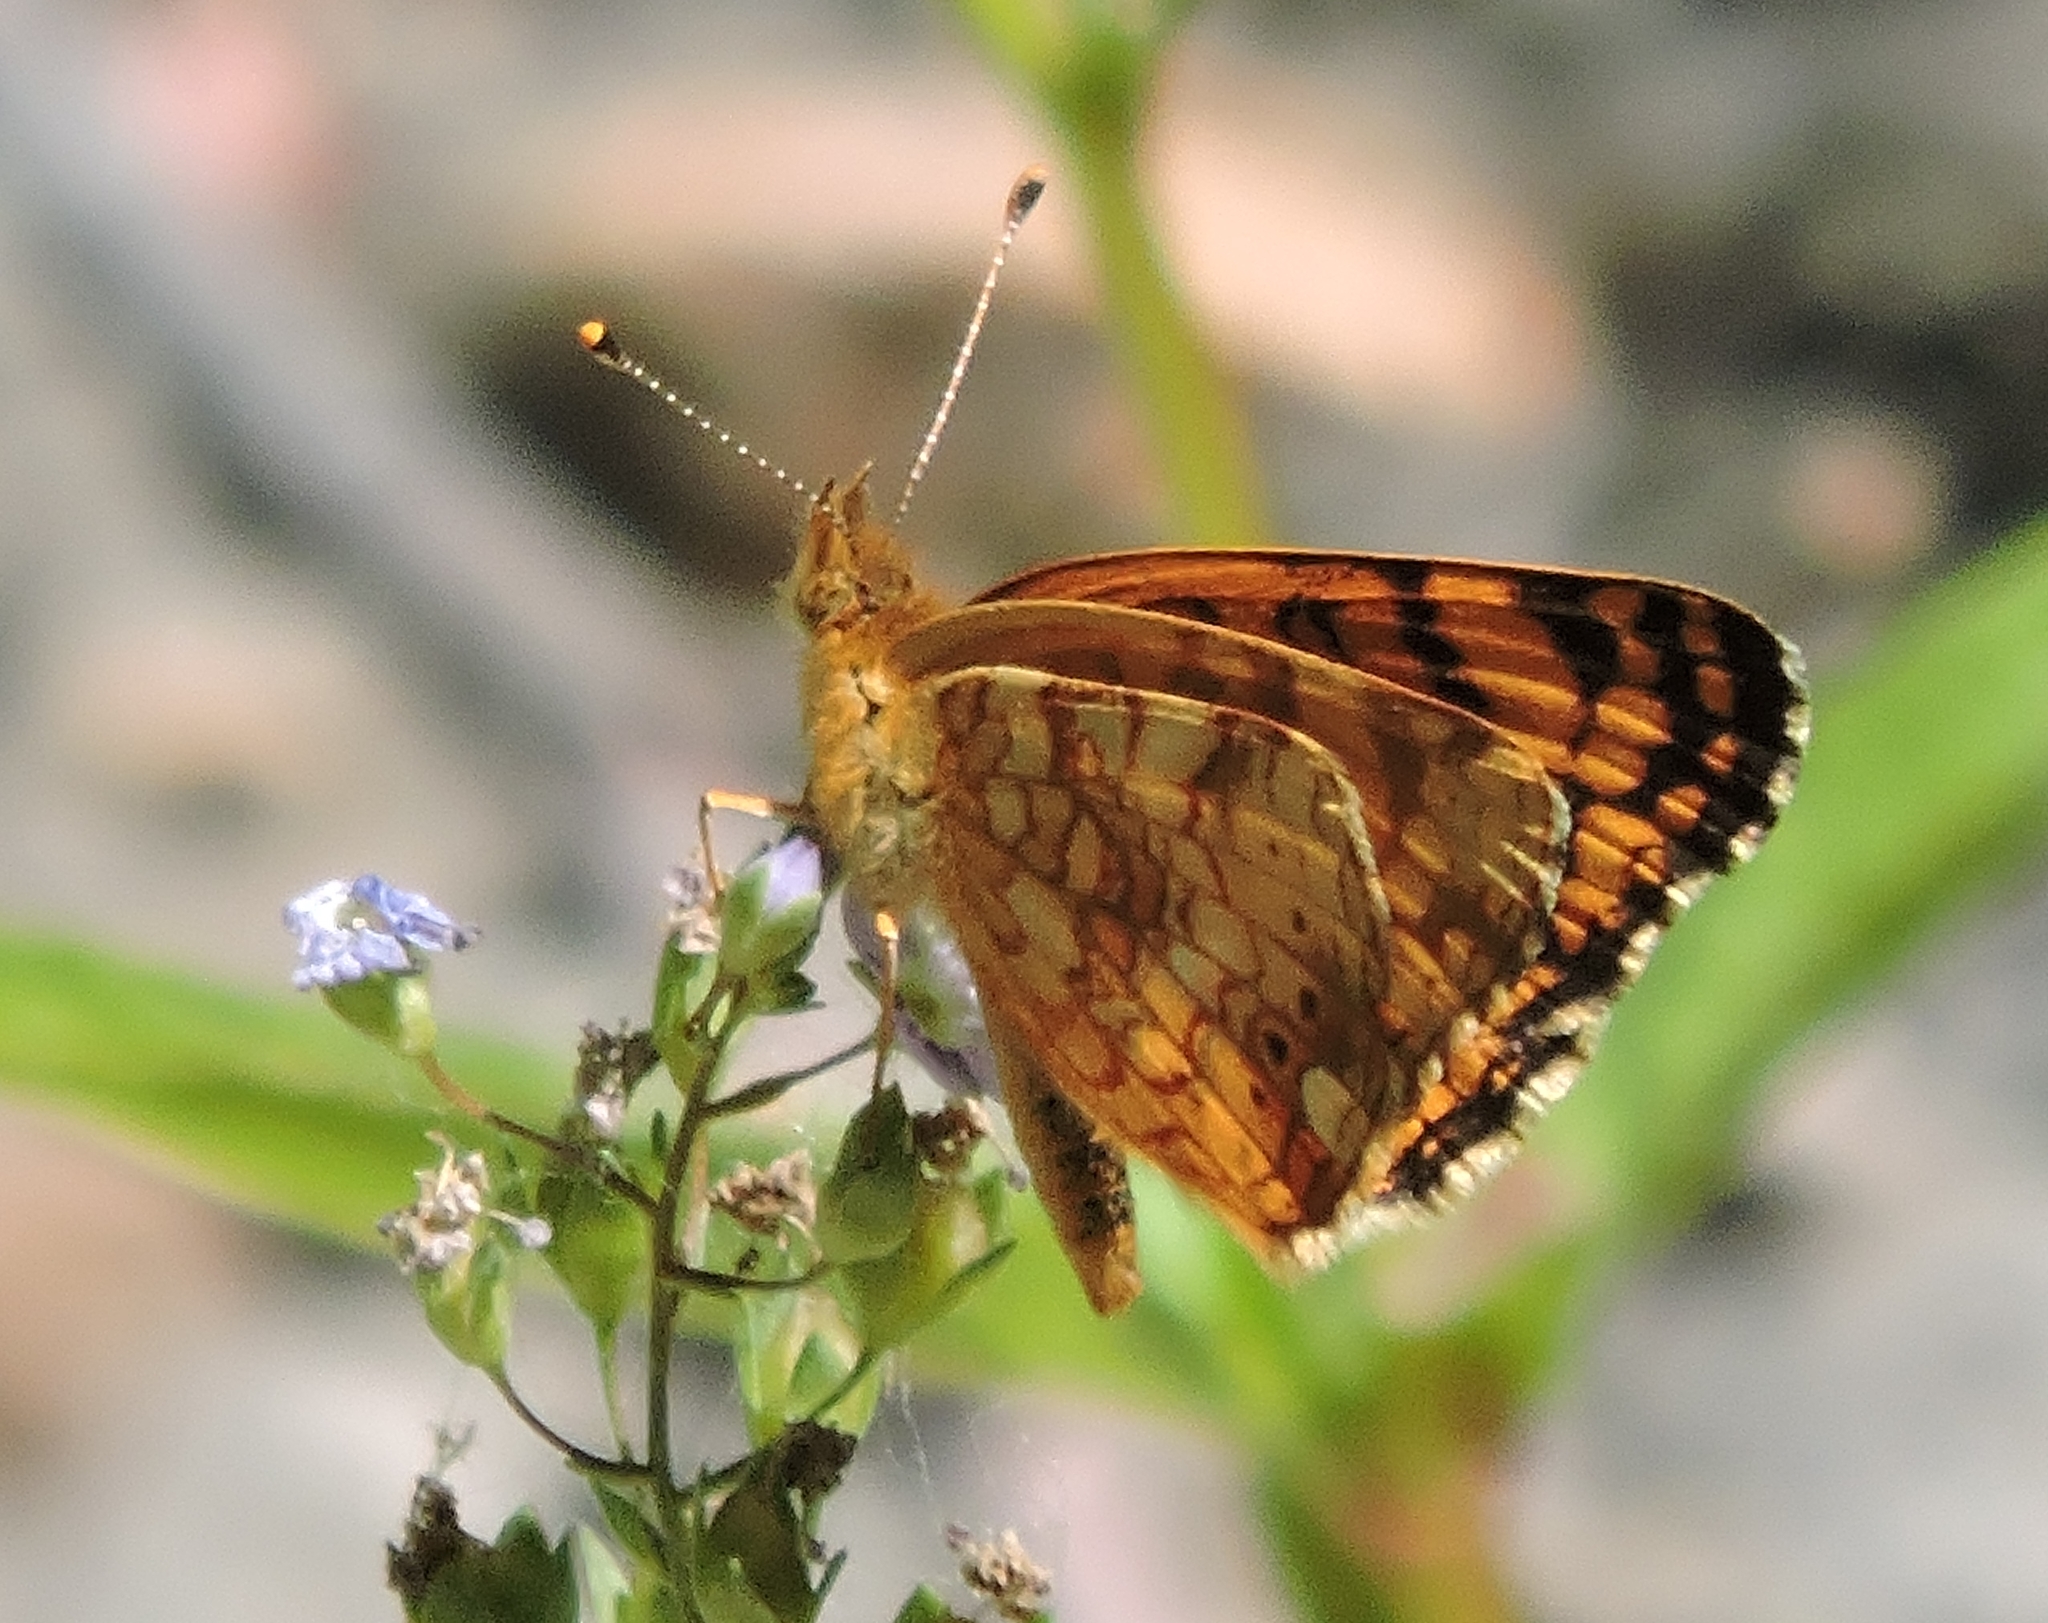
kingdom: Animalia
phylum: Arthropoda
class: Insecta
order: Lepidoptera
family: Nymphalidae
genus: Eresia
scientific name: Eresia aveyrona
